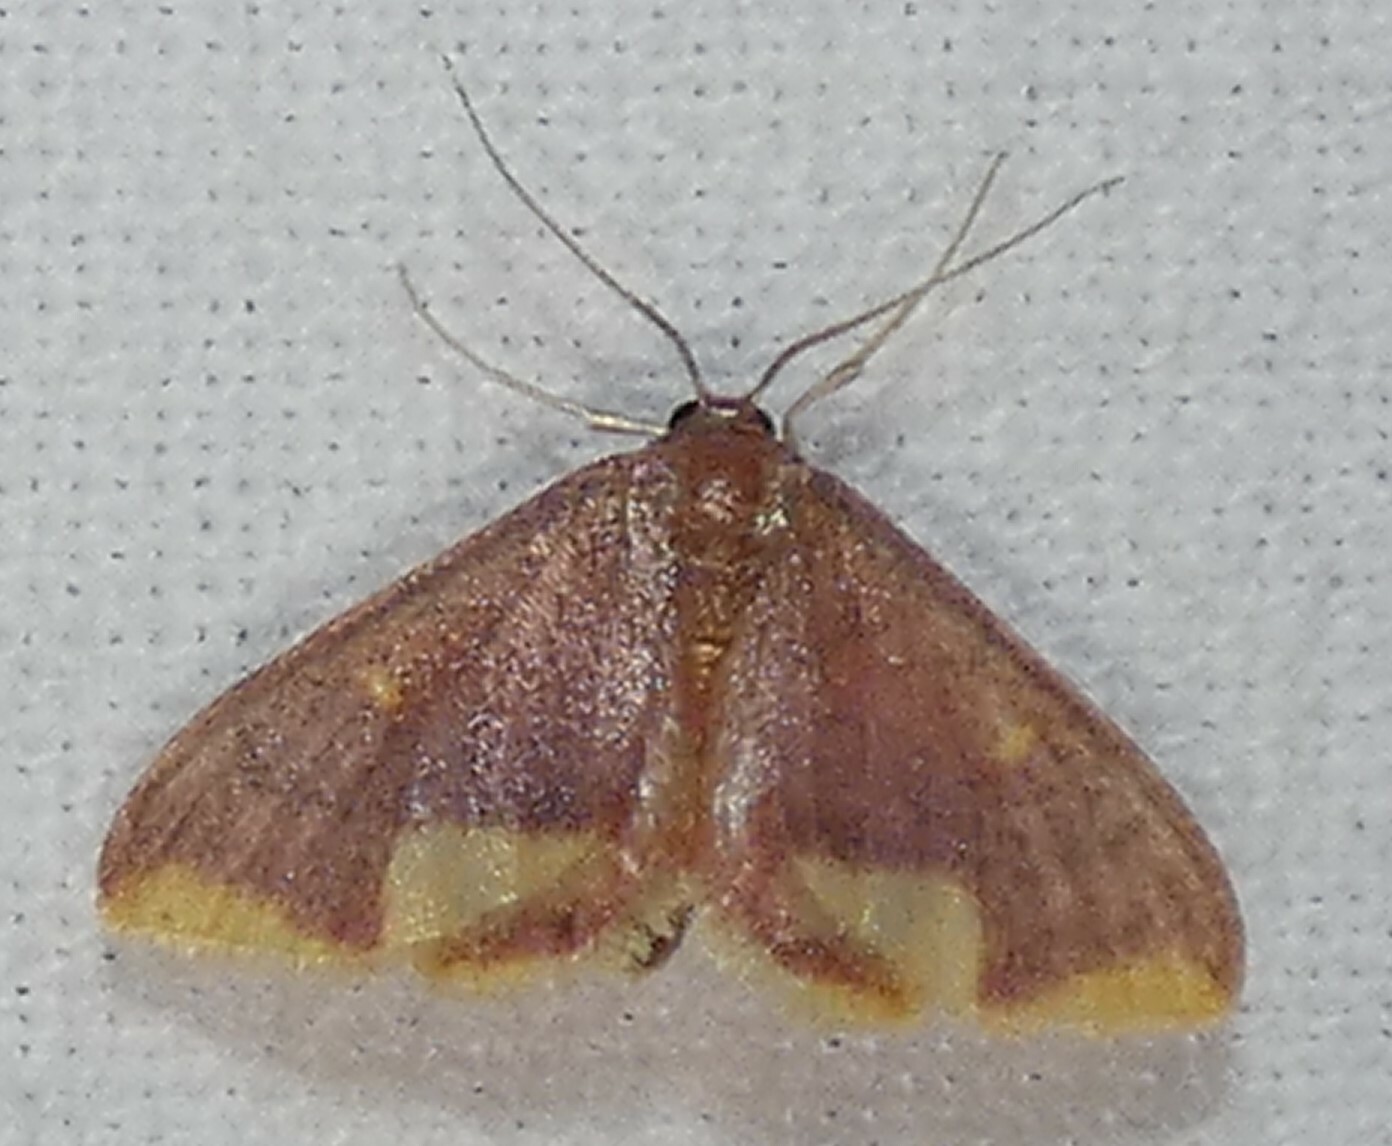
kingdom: Animalia
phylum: Arthropoda
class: Insecta
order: Lepidoptera
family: Geometridae
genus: Lophosis
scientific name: Lophosis labeculata
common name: Stained lophosis moth
